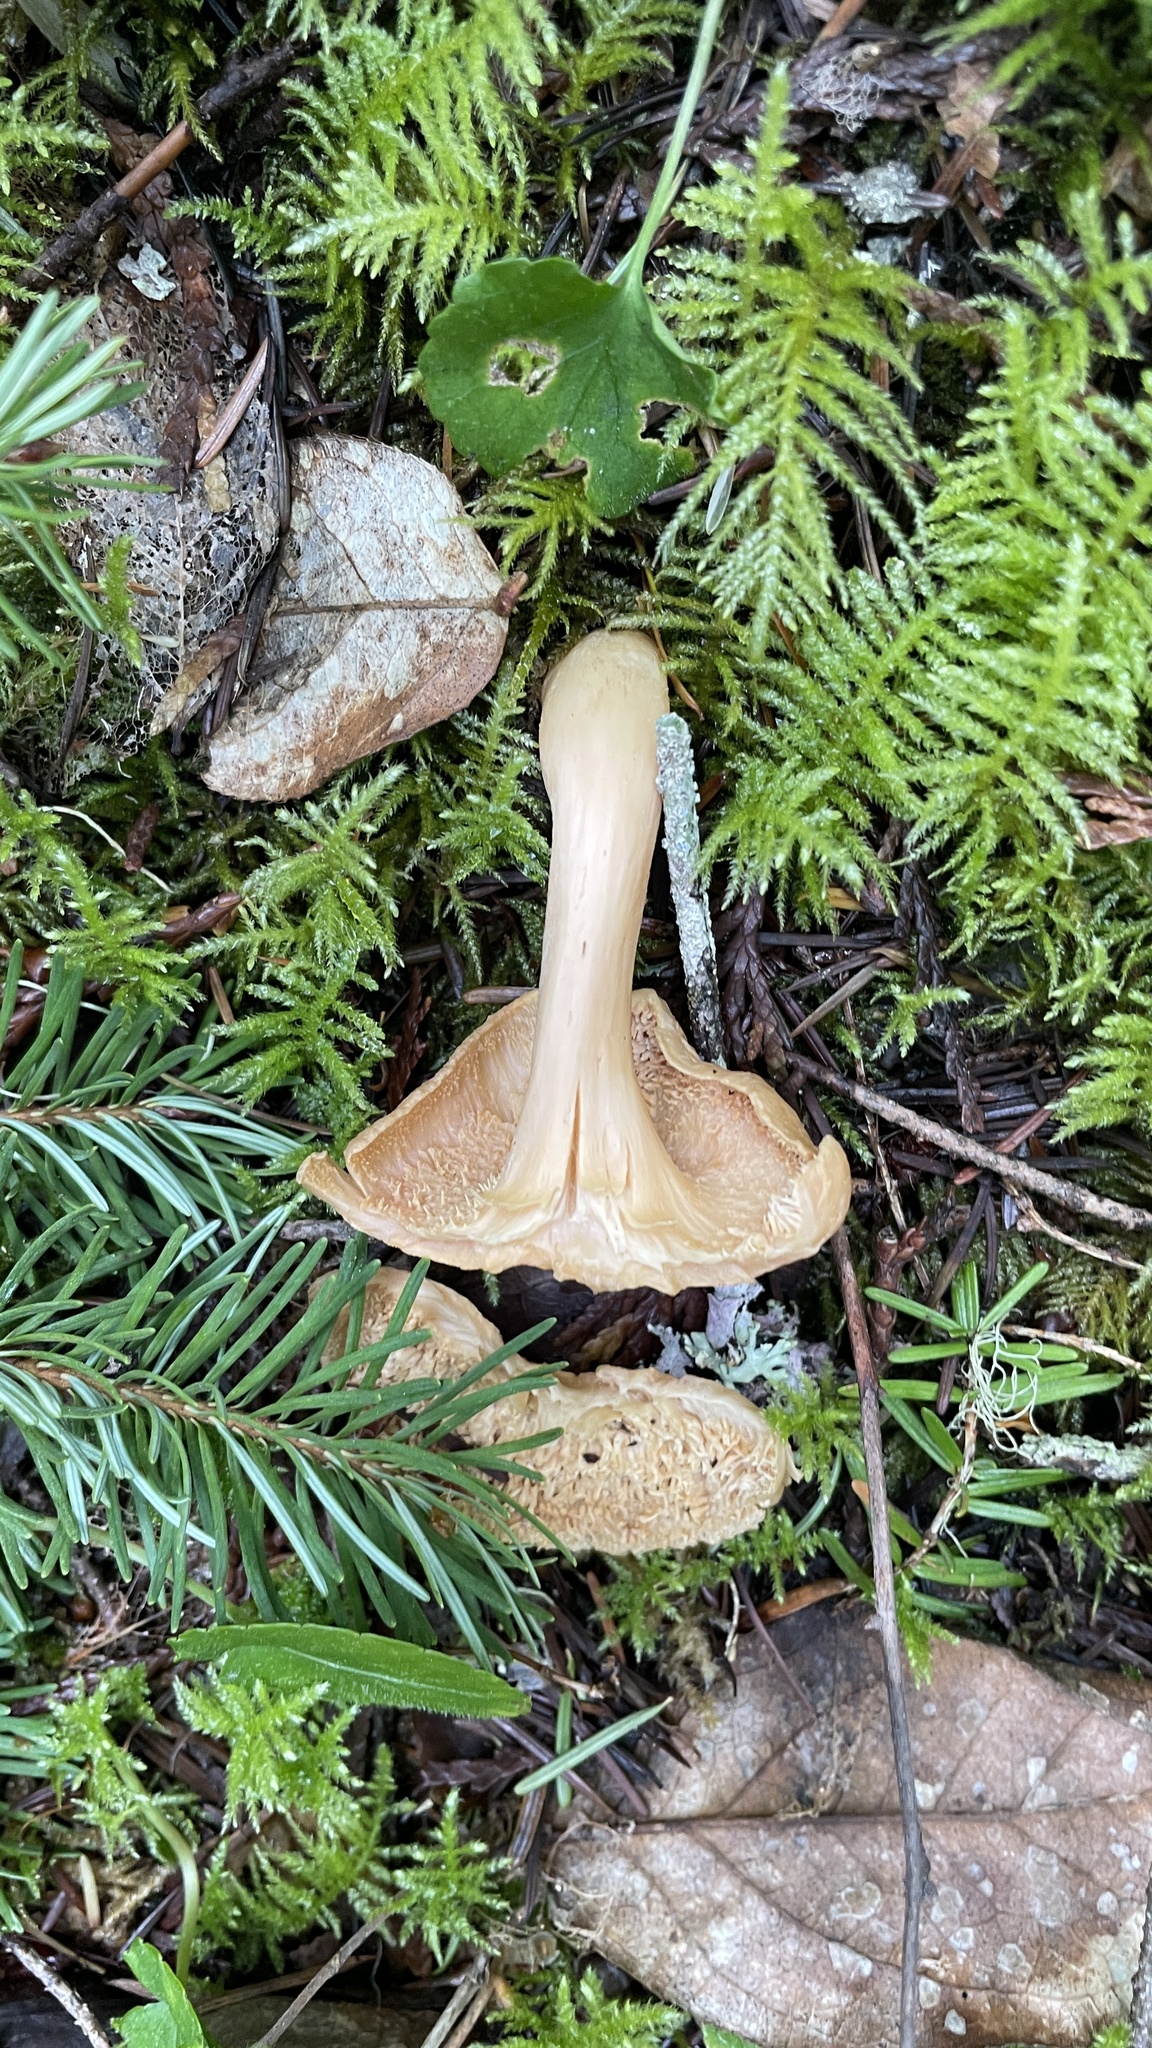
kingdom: Fungi
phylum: Basidiomycota
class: Agaricomycetes
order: Cantharellales
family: Hydnaceae
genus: Hydnum
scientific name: Hydnum oregonense
